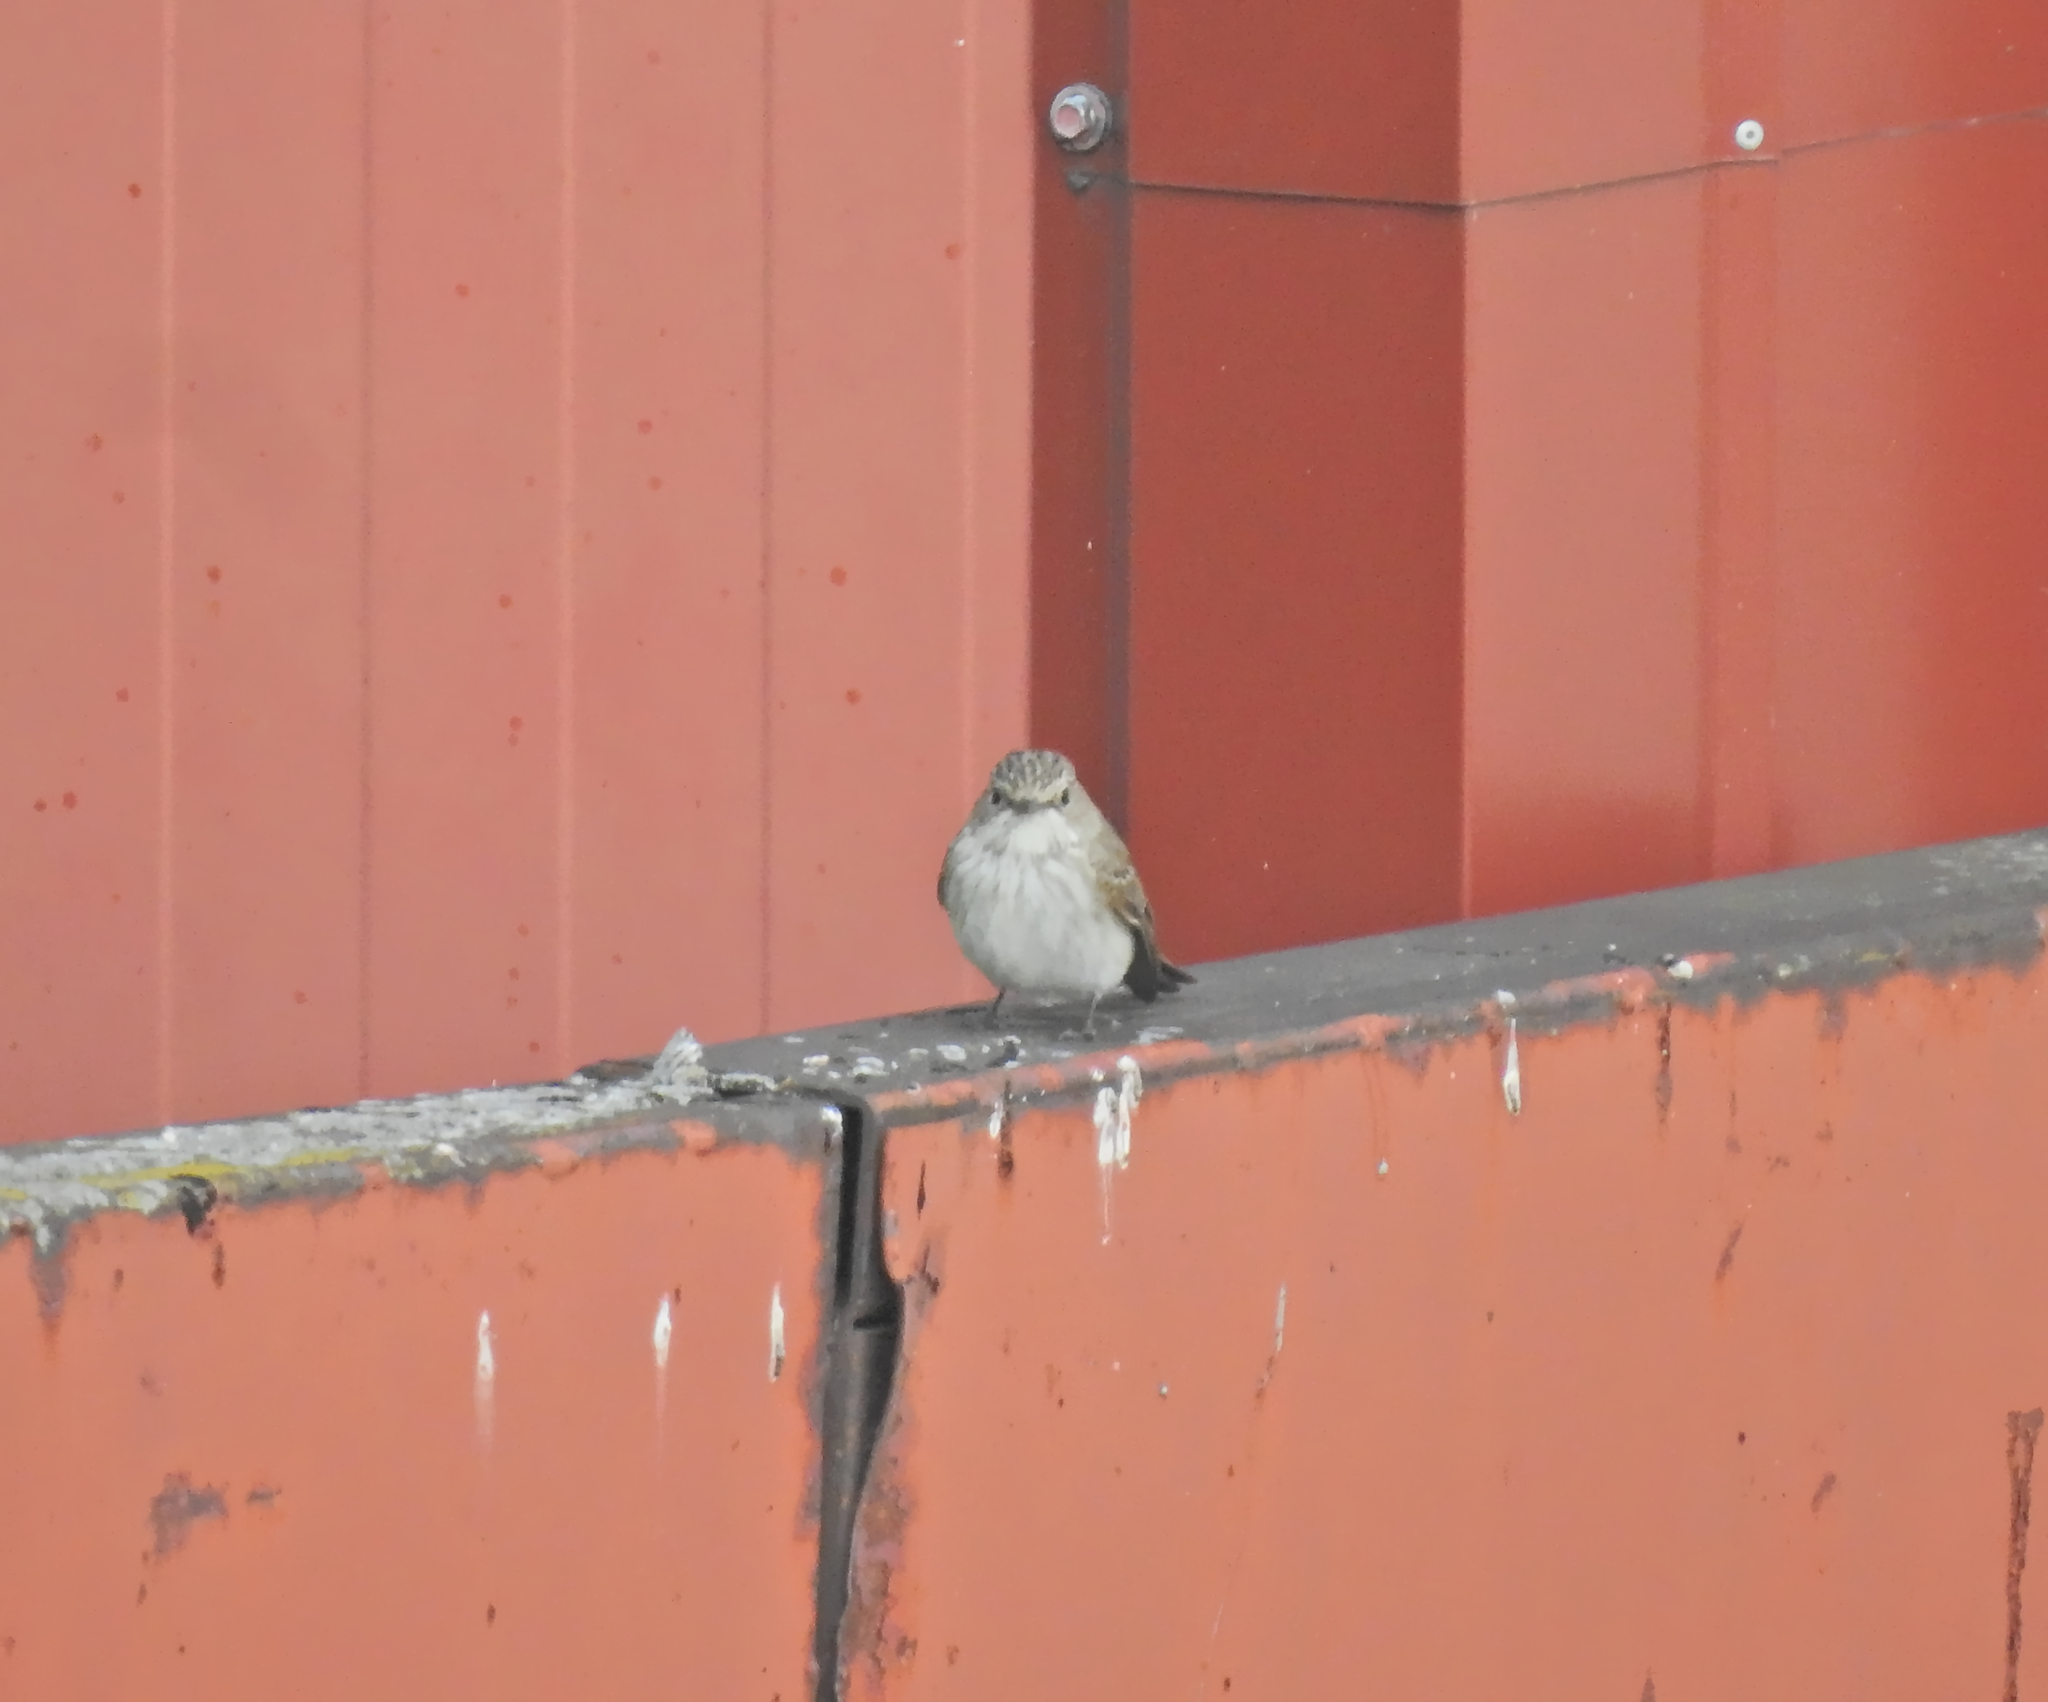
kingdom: Animalia
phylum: Chordata
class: Aves
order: Passeriformes
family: Muscicapidae
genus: Muscicapa
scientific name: Muscicapa striata
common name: Spotted flycatcher
